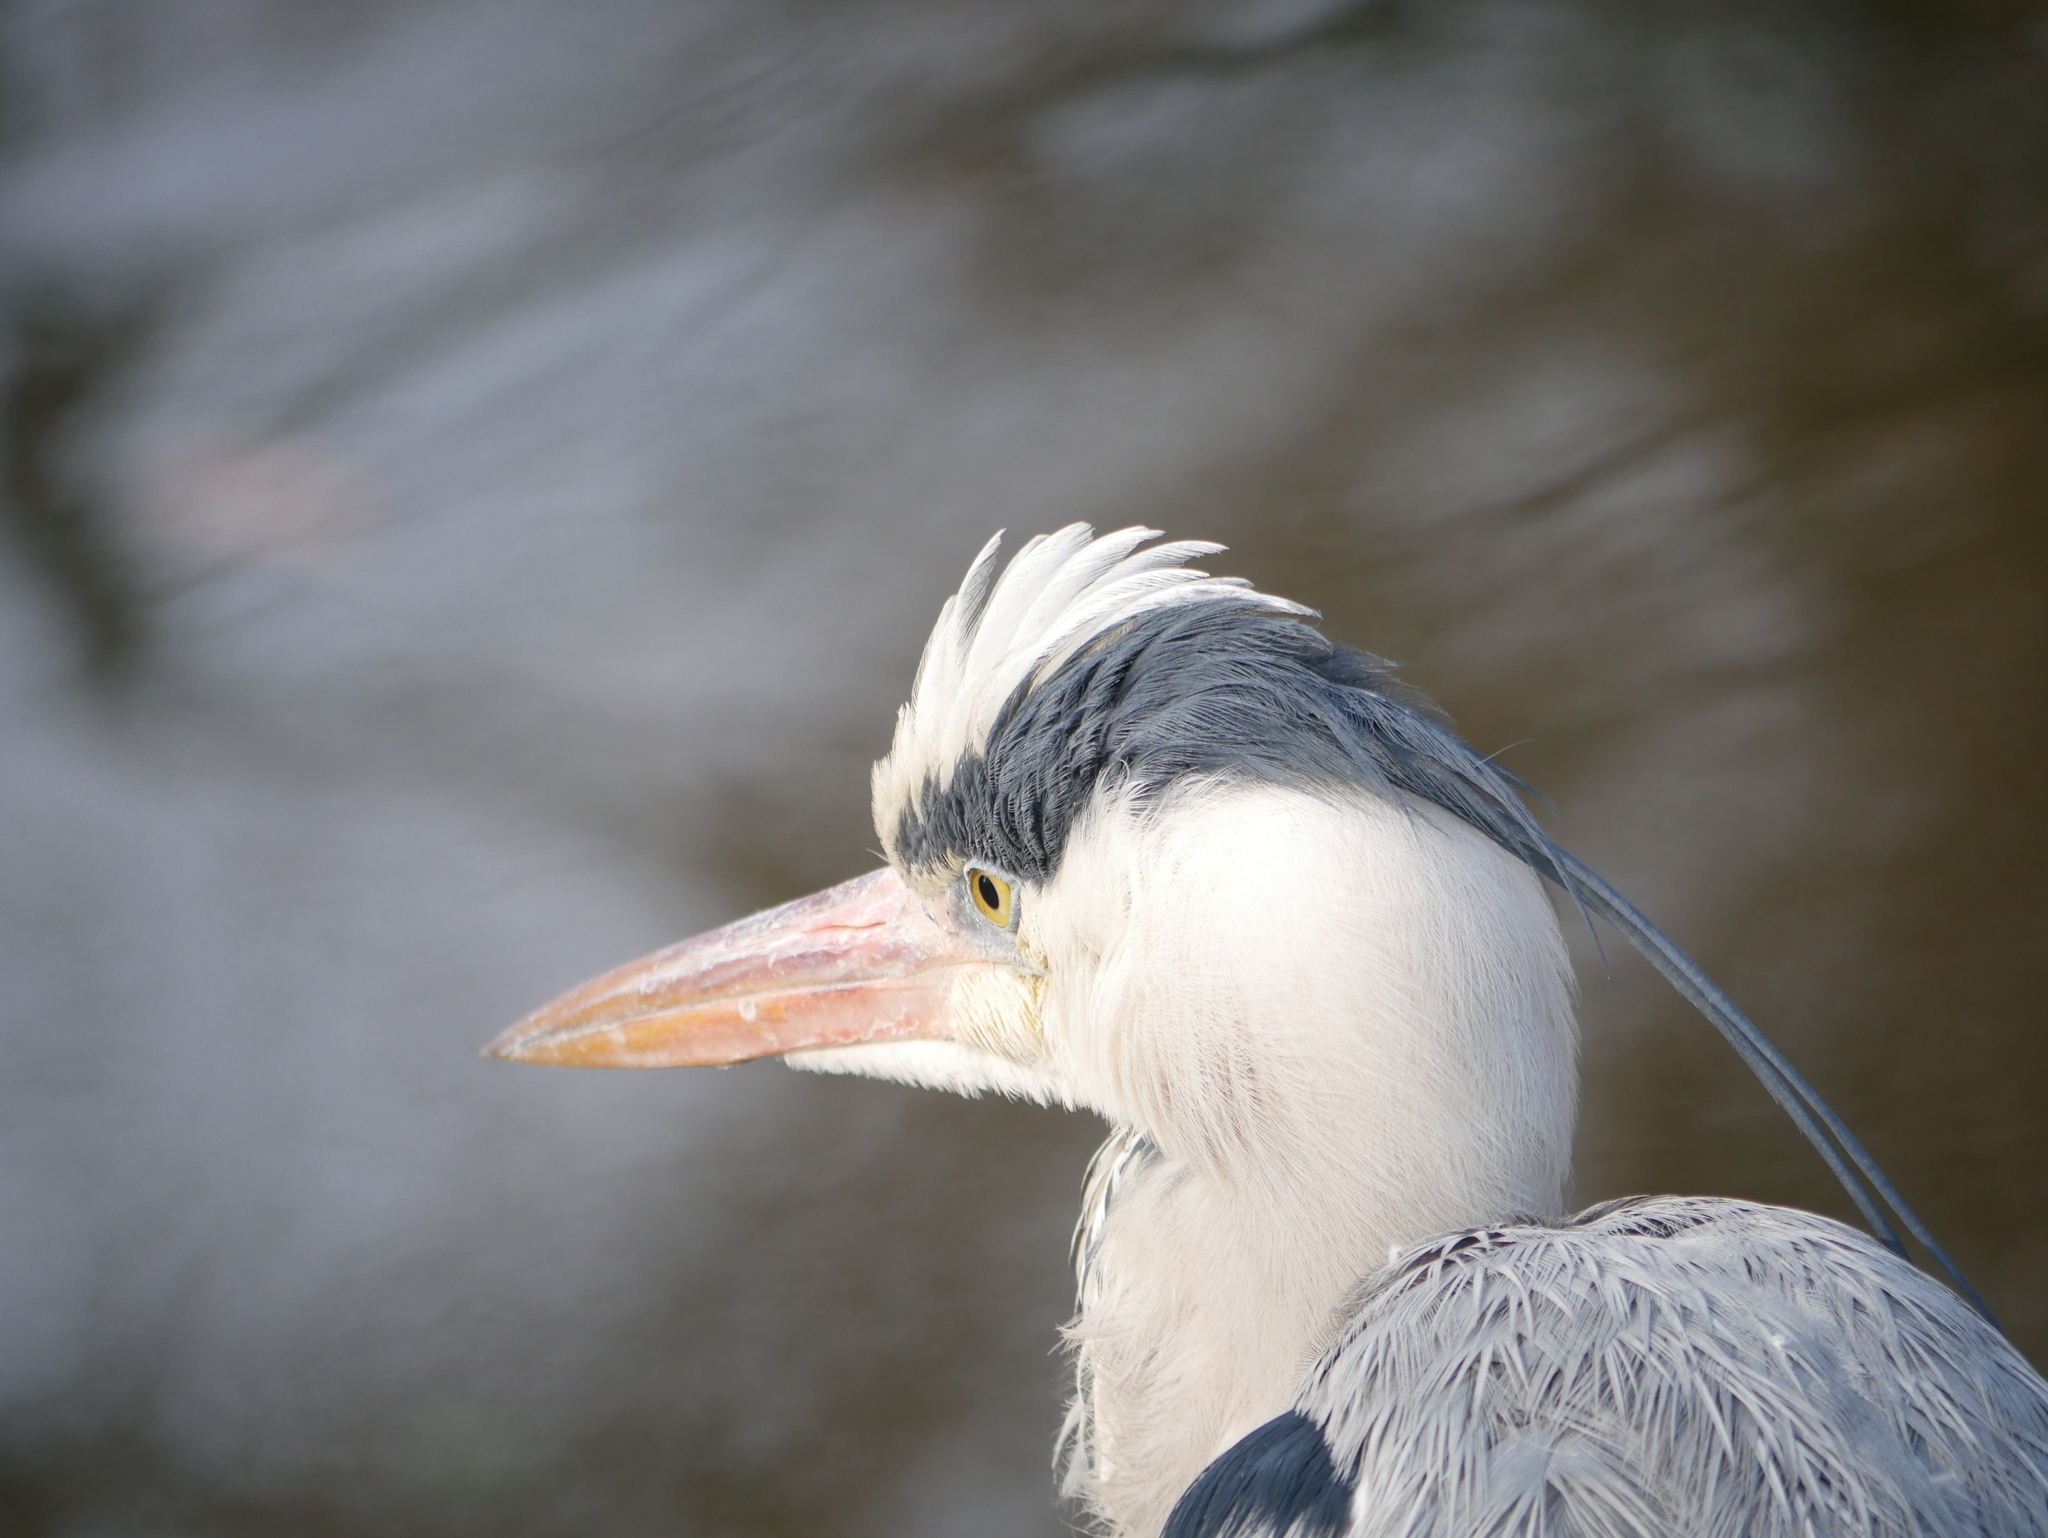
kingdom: Animalia
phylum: Chordata
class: Aves
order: Pelecaniformes
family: Ardeidae
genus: Ardea
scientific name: Ardea cinerea
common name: Grey heron
